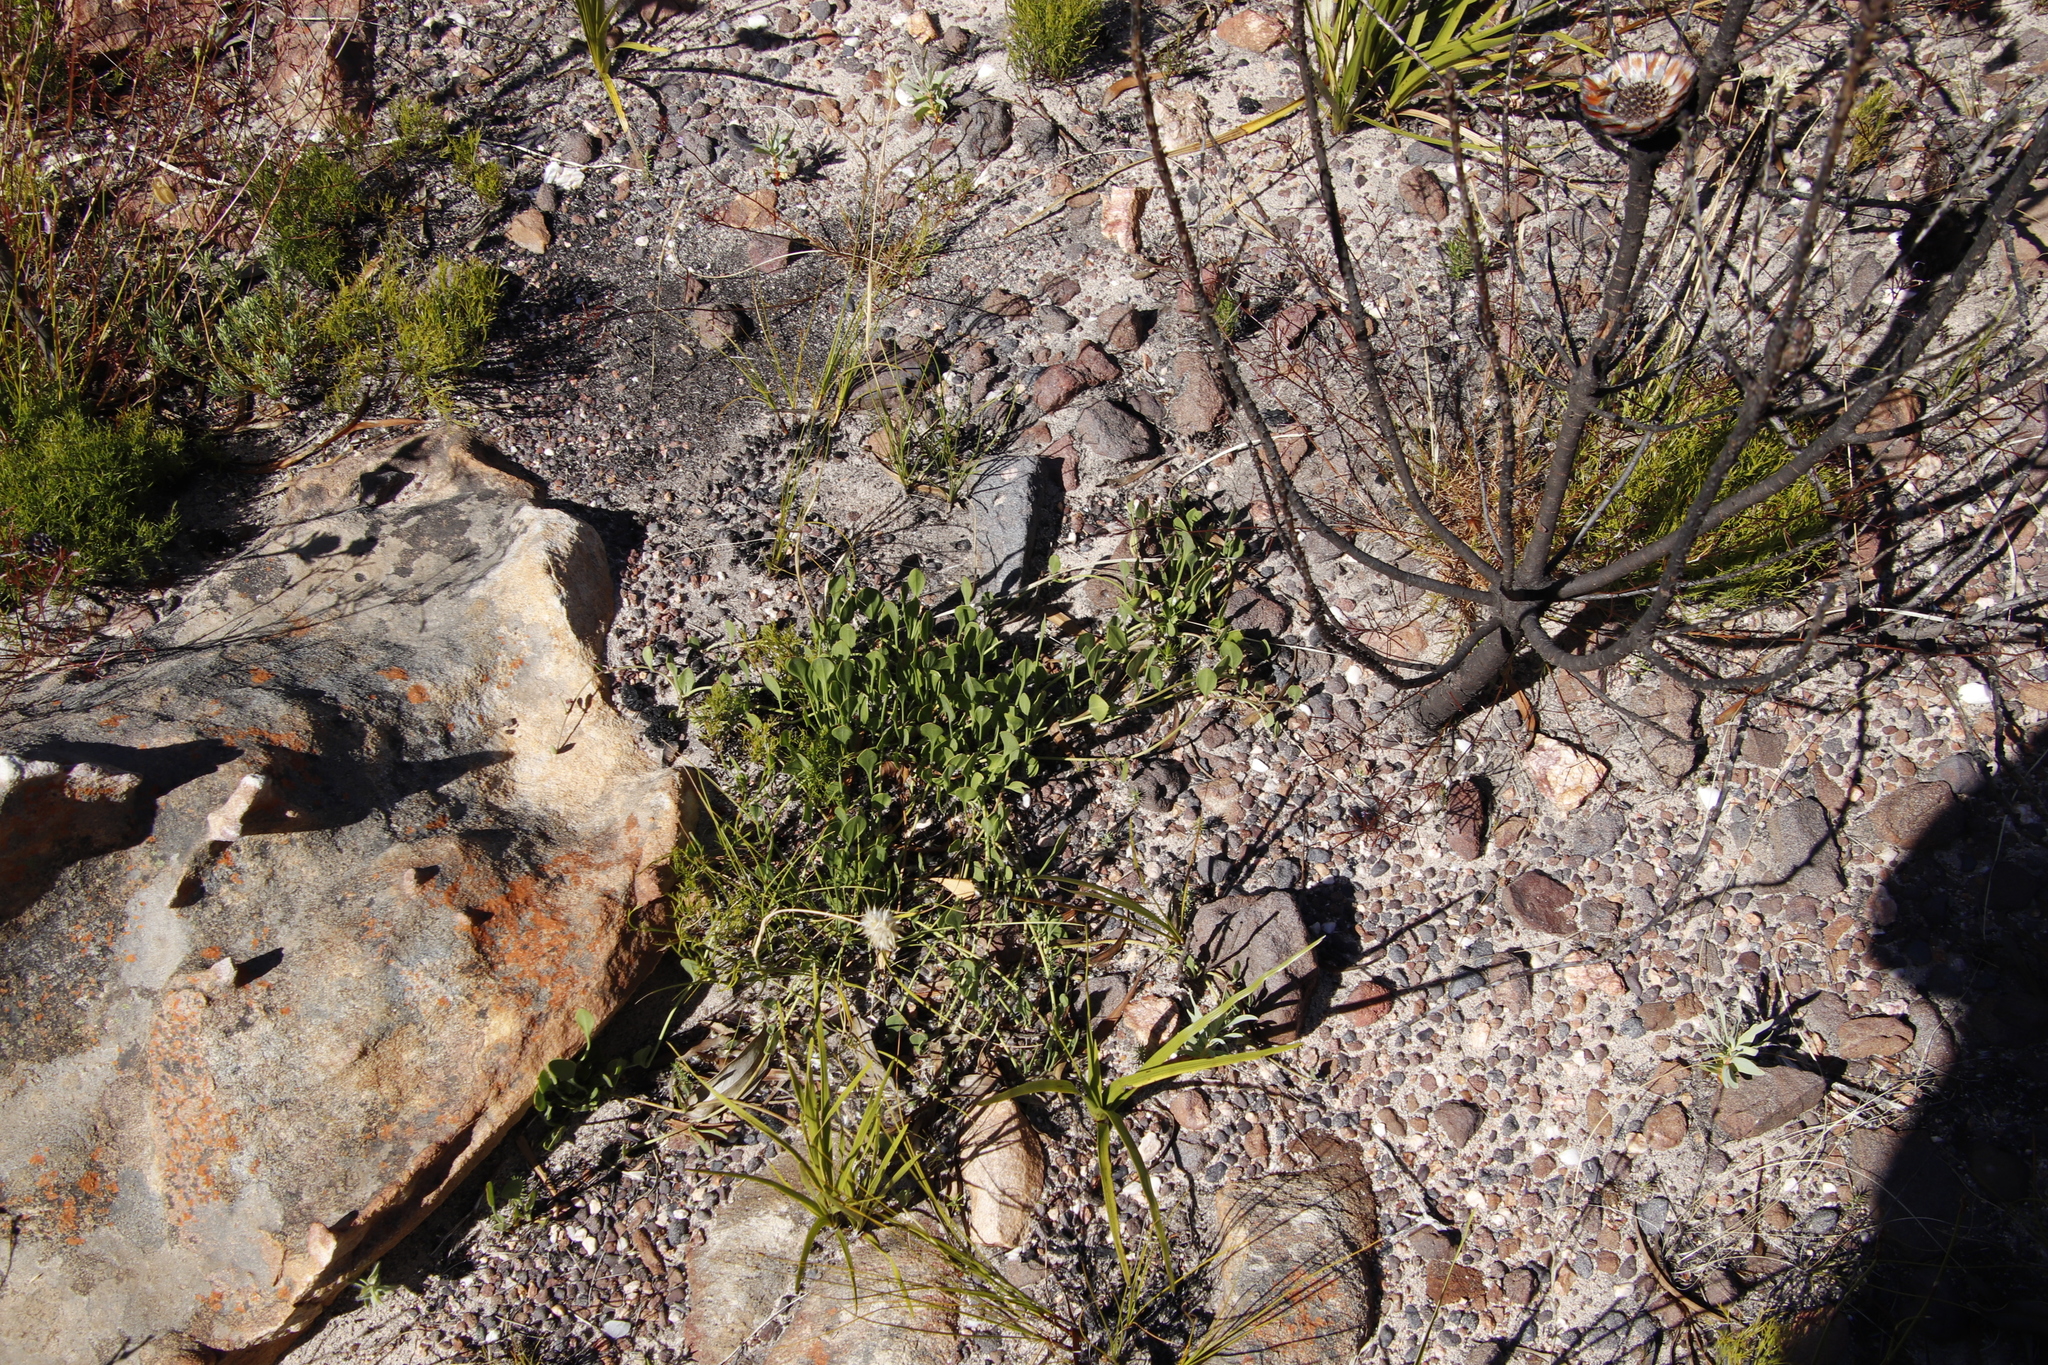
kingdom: Plantae
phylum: Tracheophyta
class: Magnoliopsida
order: Apiales
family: Apiaceae
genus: Centella
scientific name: Centella glabrata
